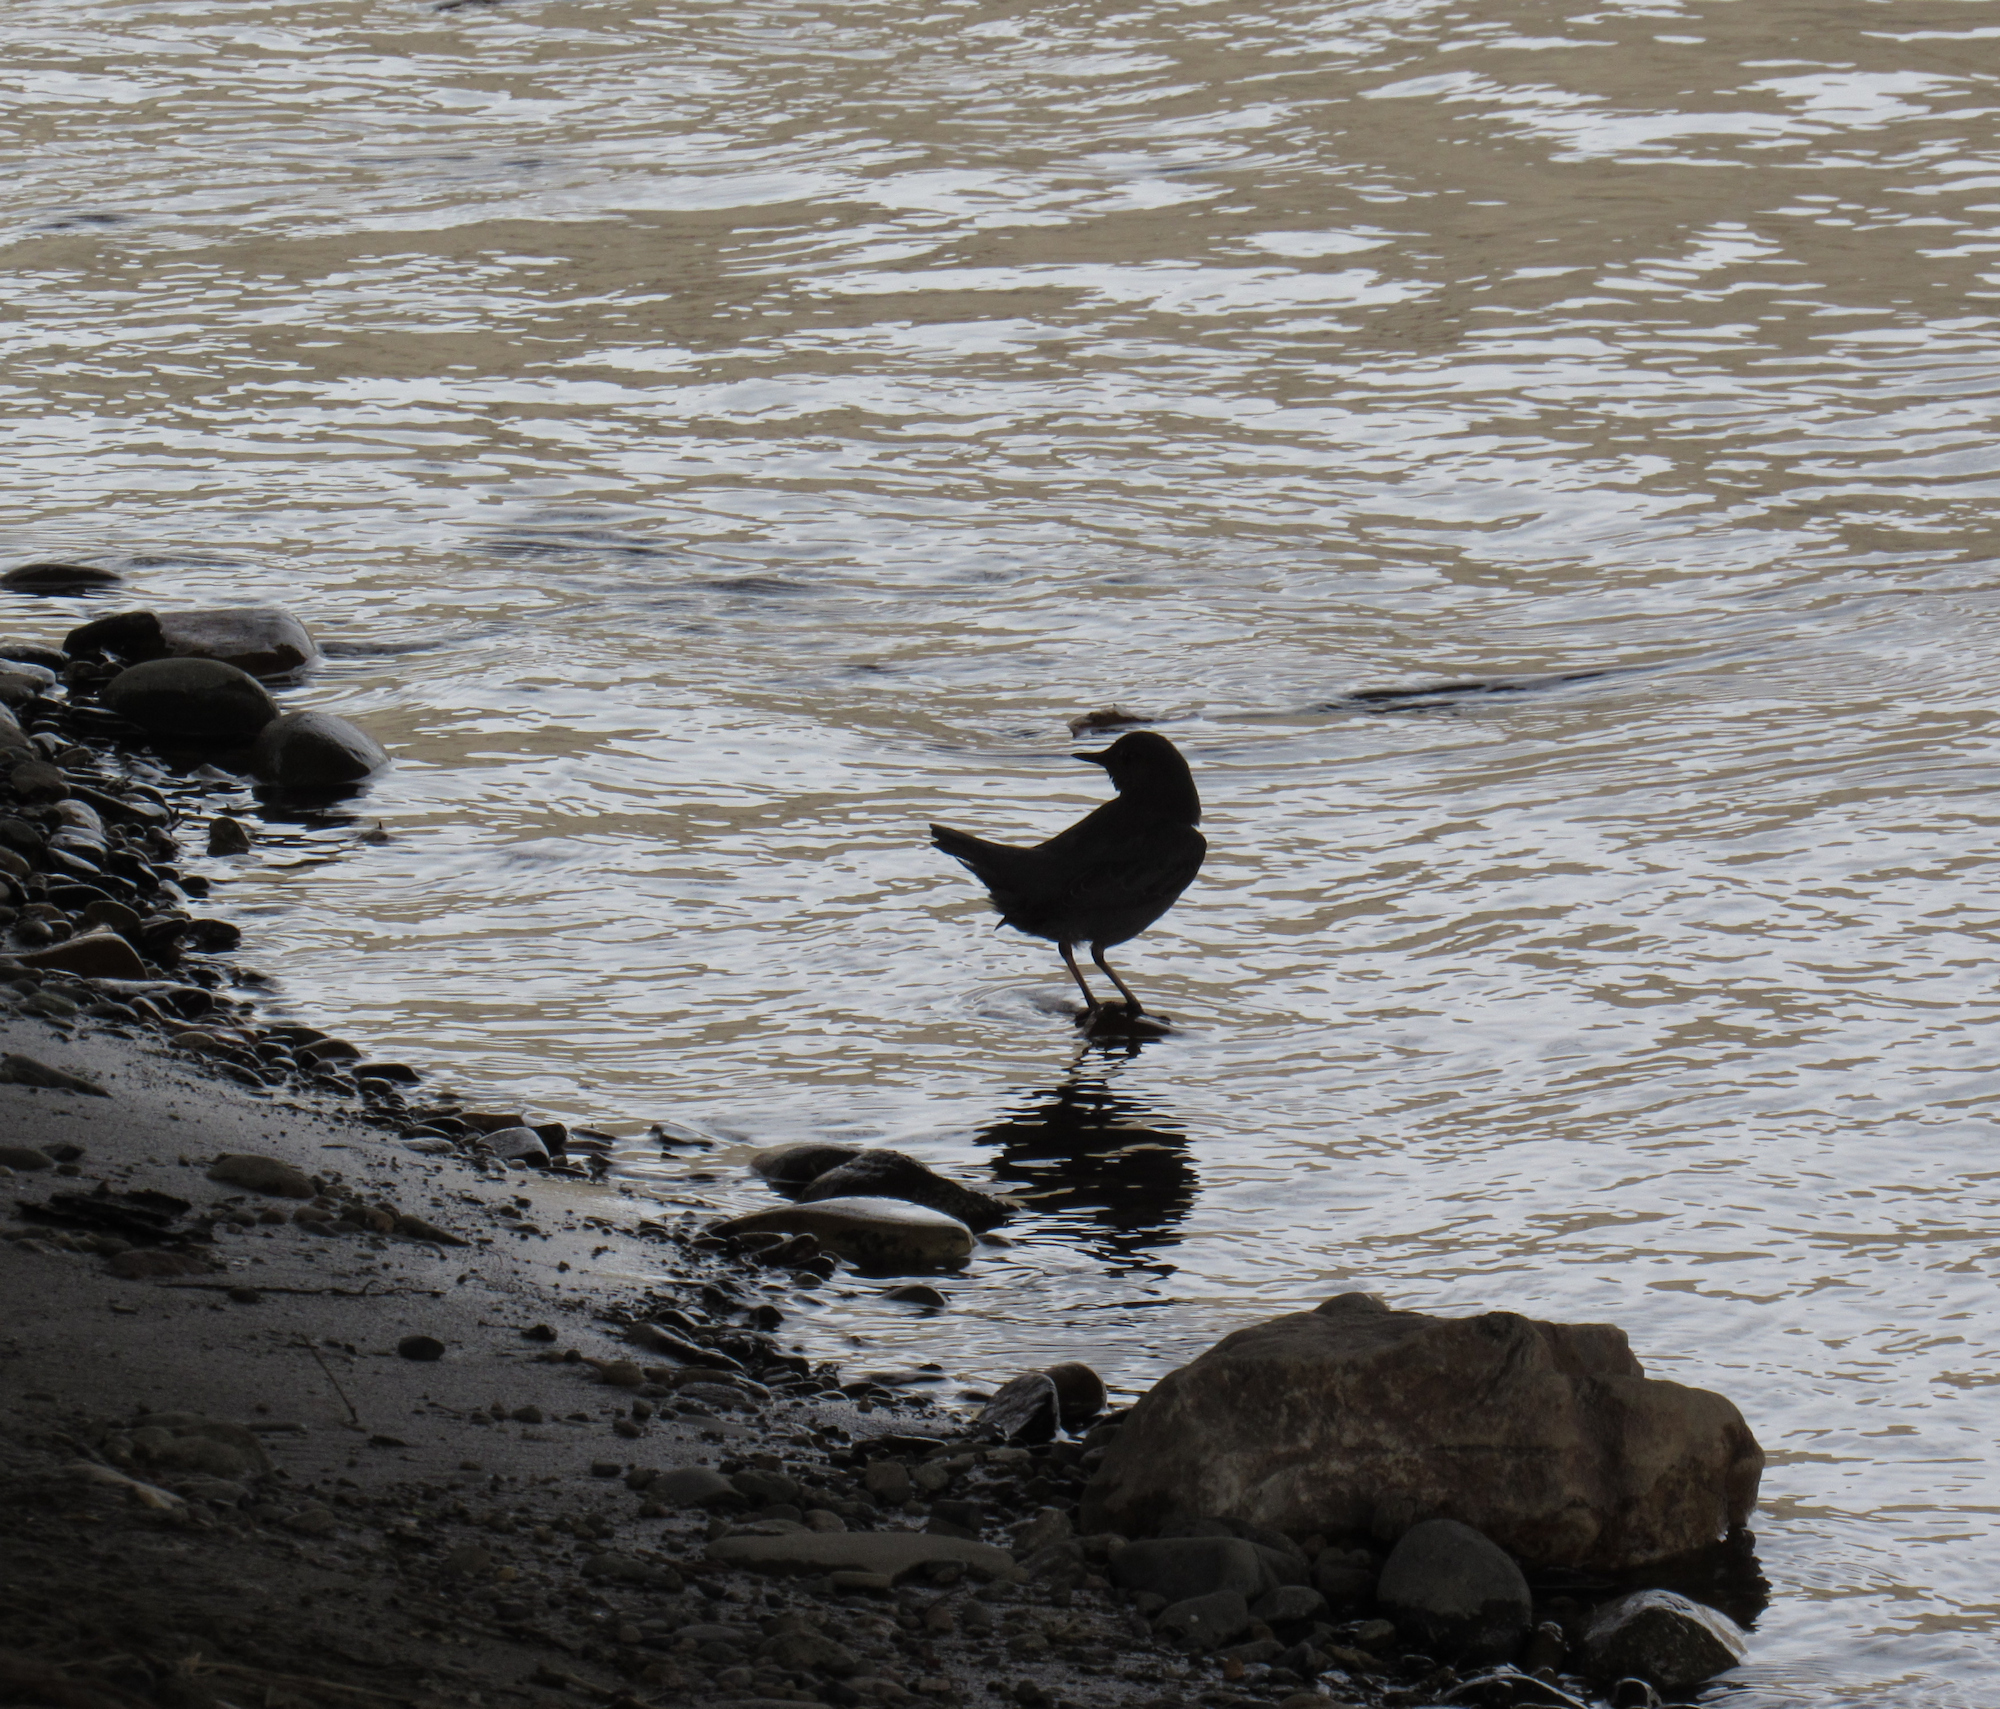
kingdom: Animalia
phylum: Chordata
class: Aves
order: Passeriformes
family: Cinclidae
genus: Cinclus
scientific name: Cinclus mexicanus
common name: American dipper
